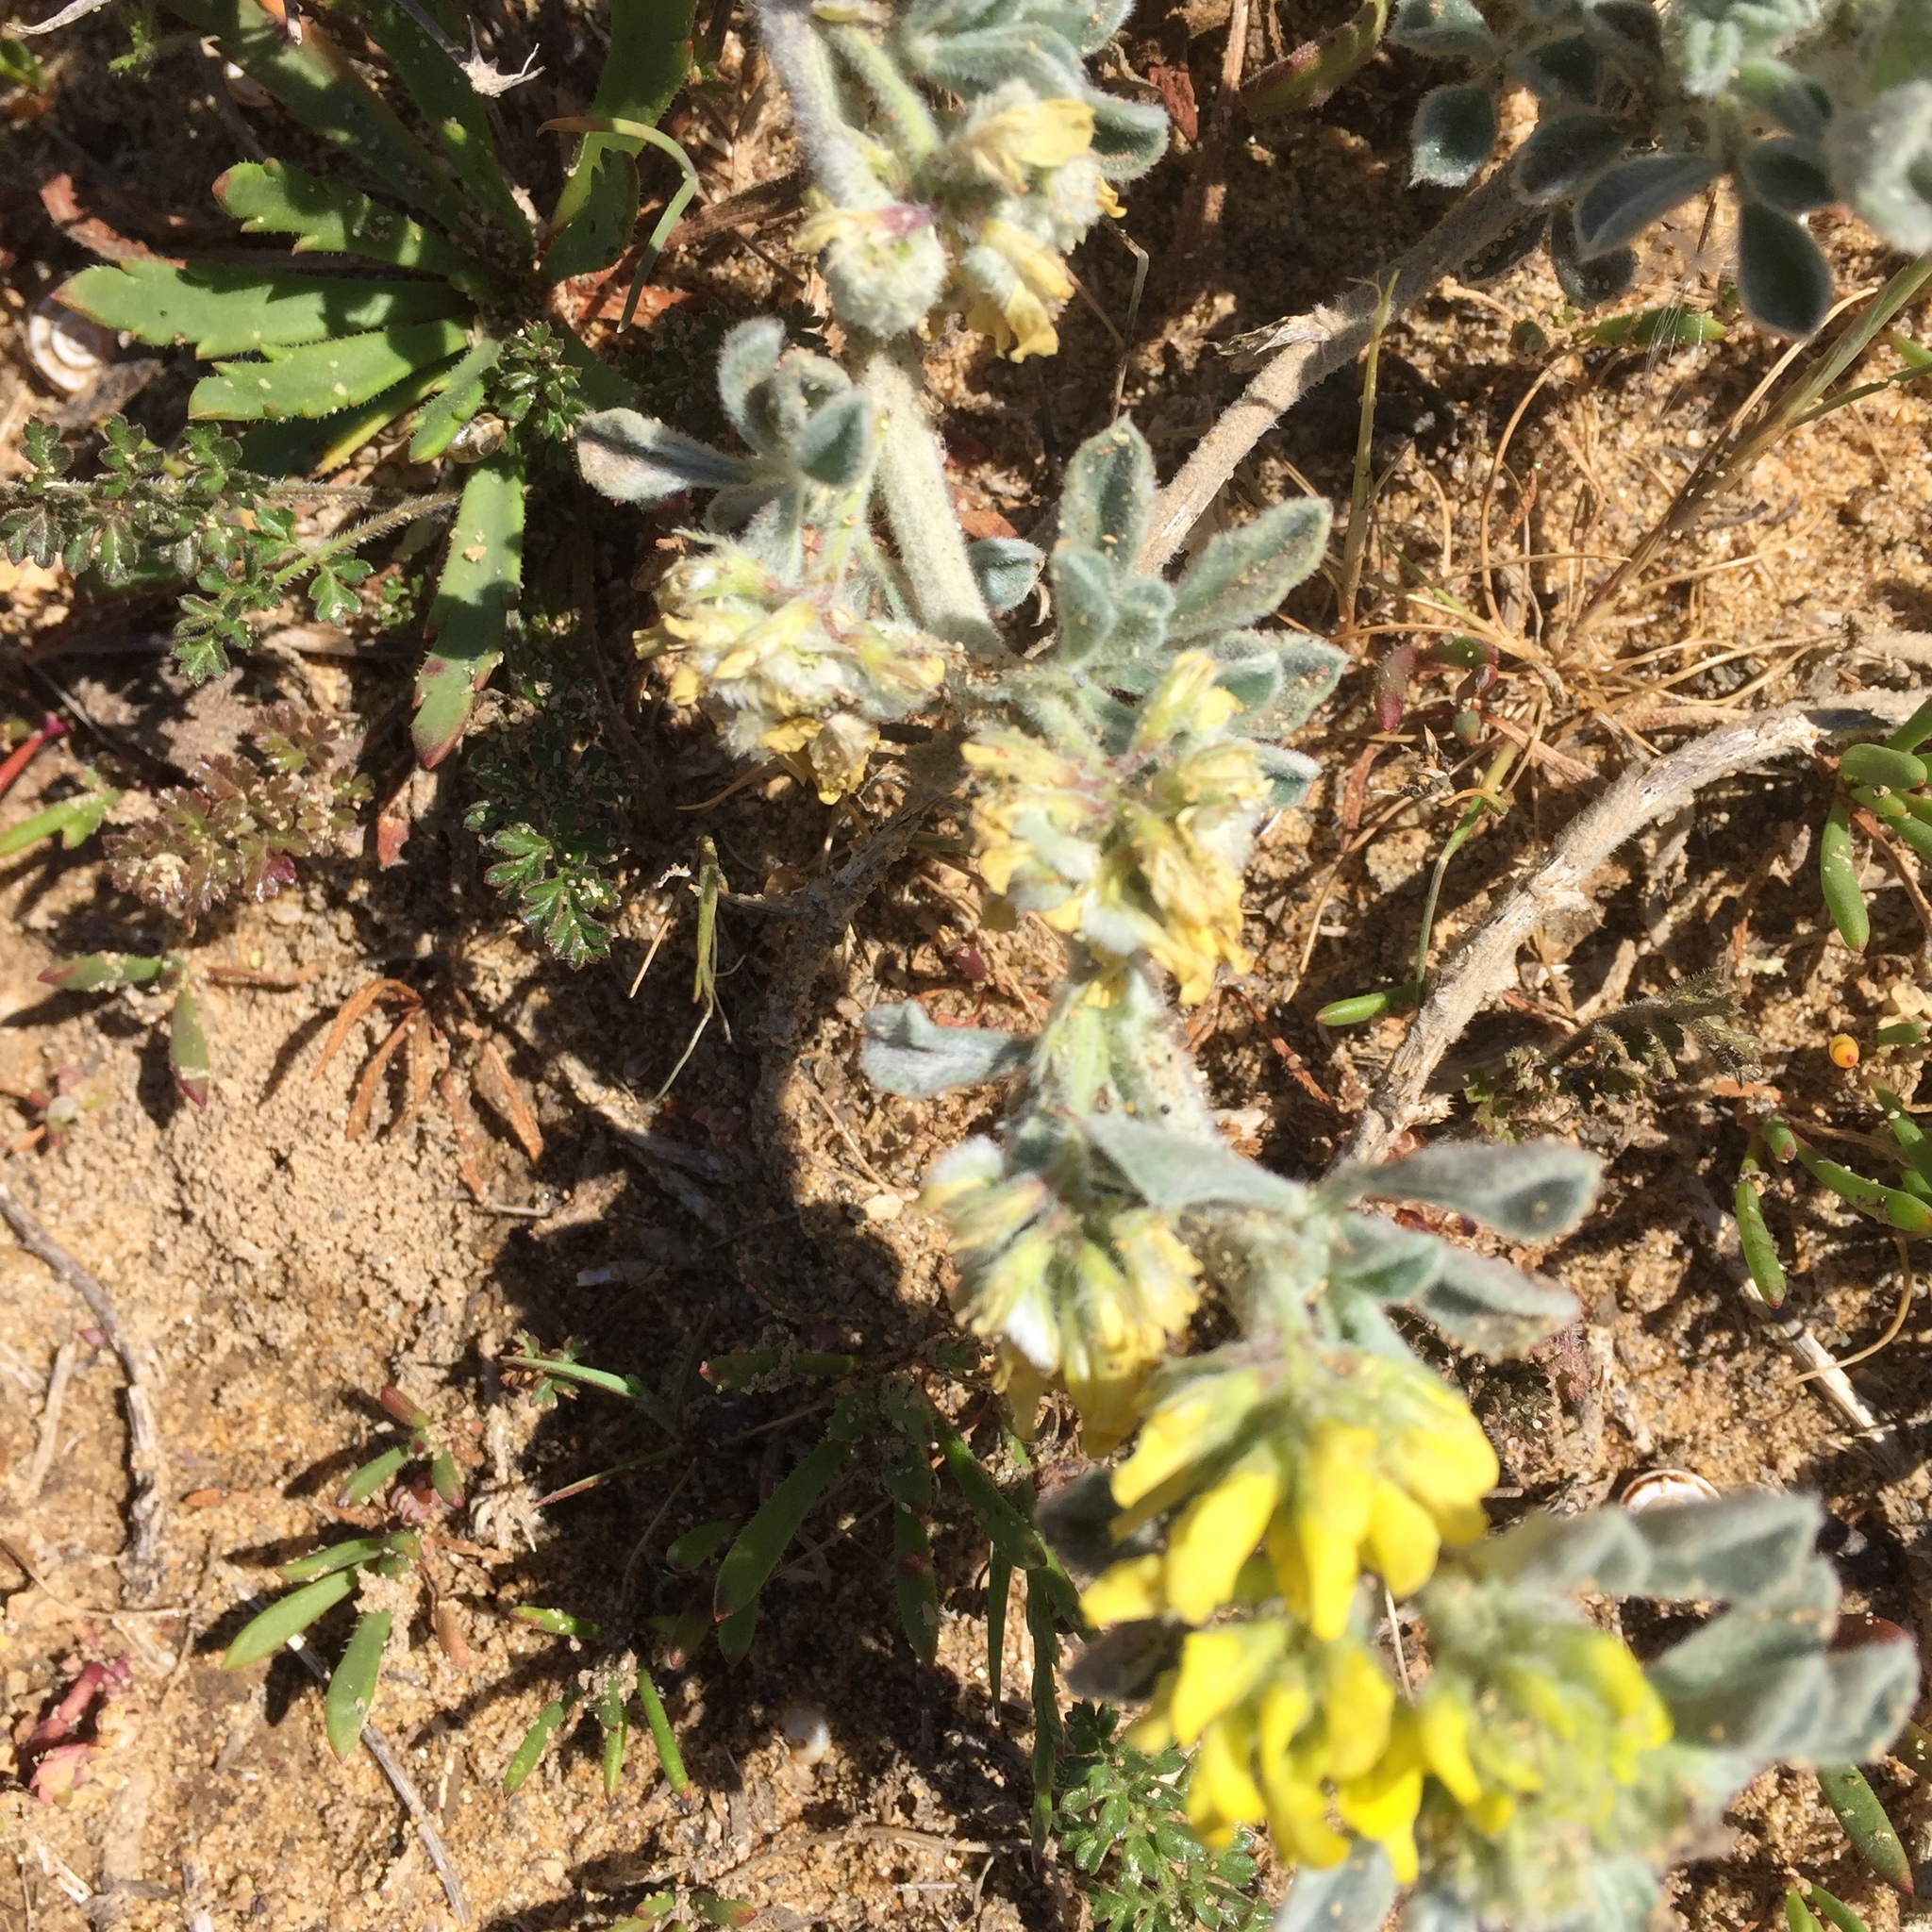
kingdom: Plantae
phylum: Tracheophyta
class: Magnoliopsida
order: Fabales
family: Fabaceae
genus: Medicago
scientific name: Medicago marina
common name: Sea medick
